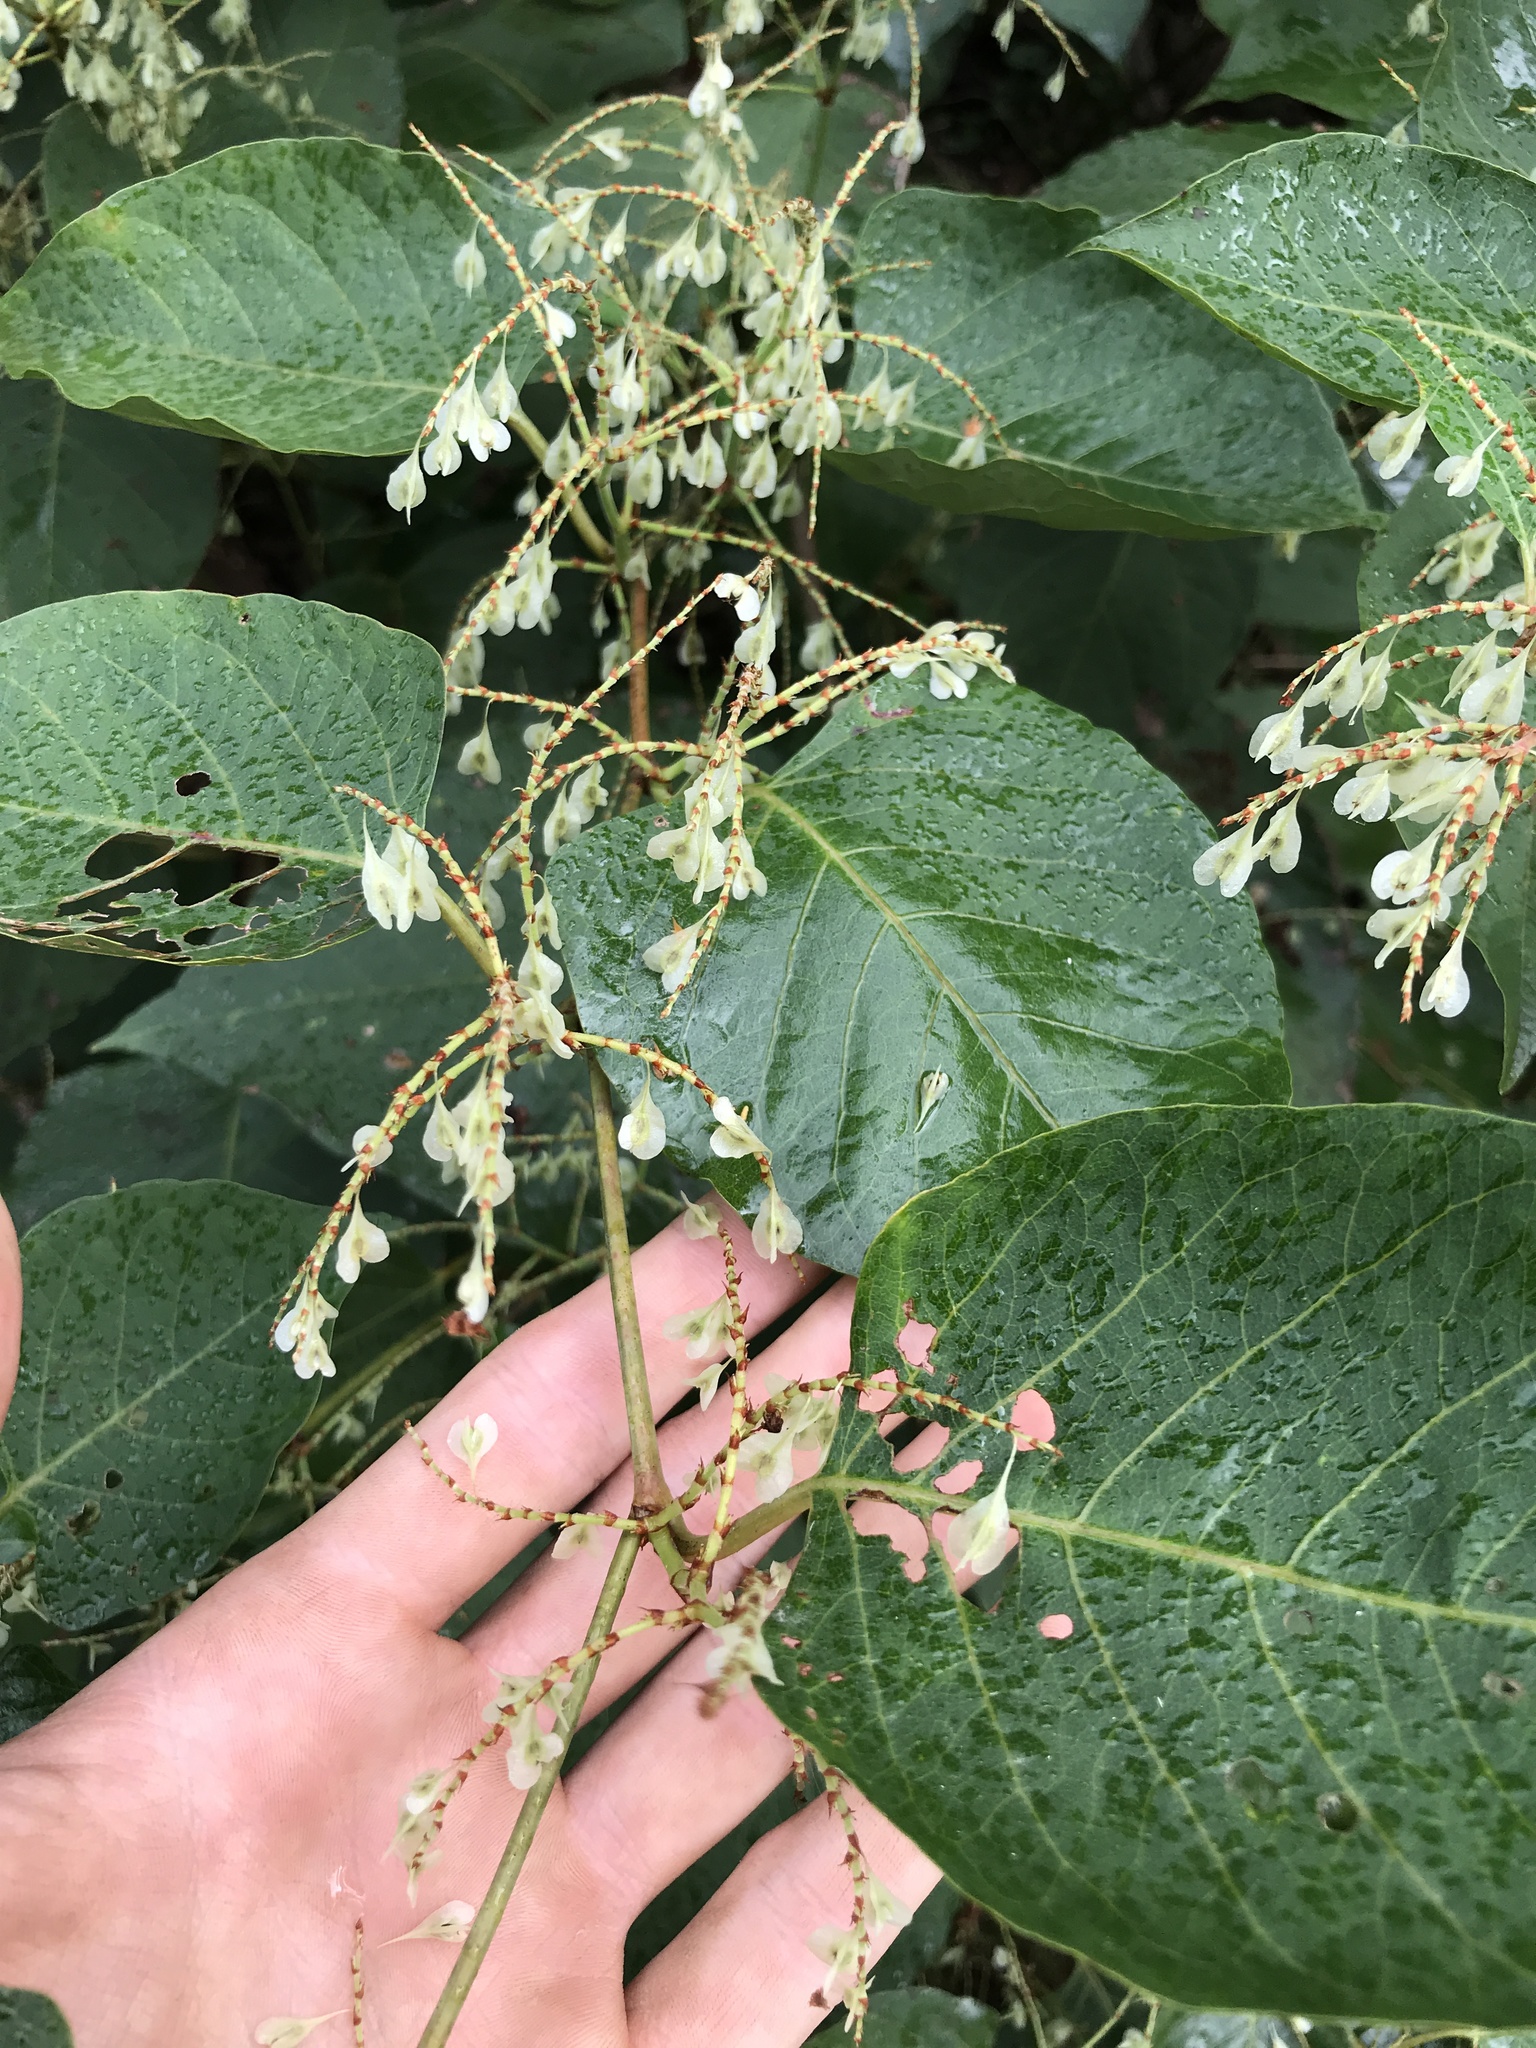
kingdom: Plantae
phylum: Tracheophyta
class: Magnoliopsida
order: Caryophyllales
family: Polygonaceae
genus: Reynoutria
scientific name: Reynoutria japonica
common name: Japanese knotweed
